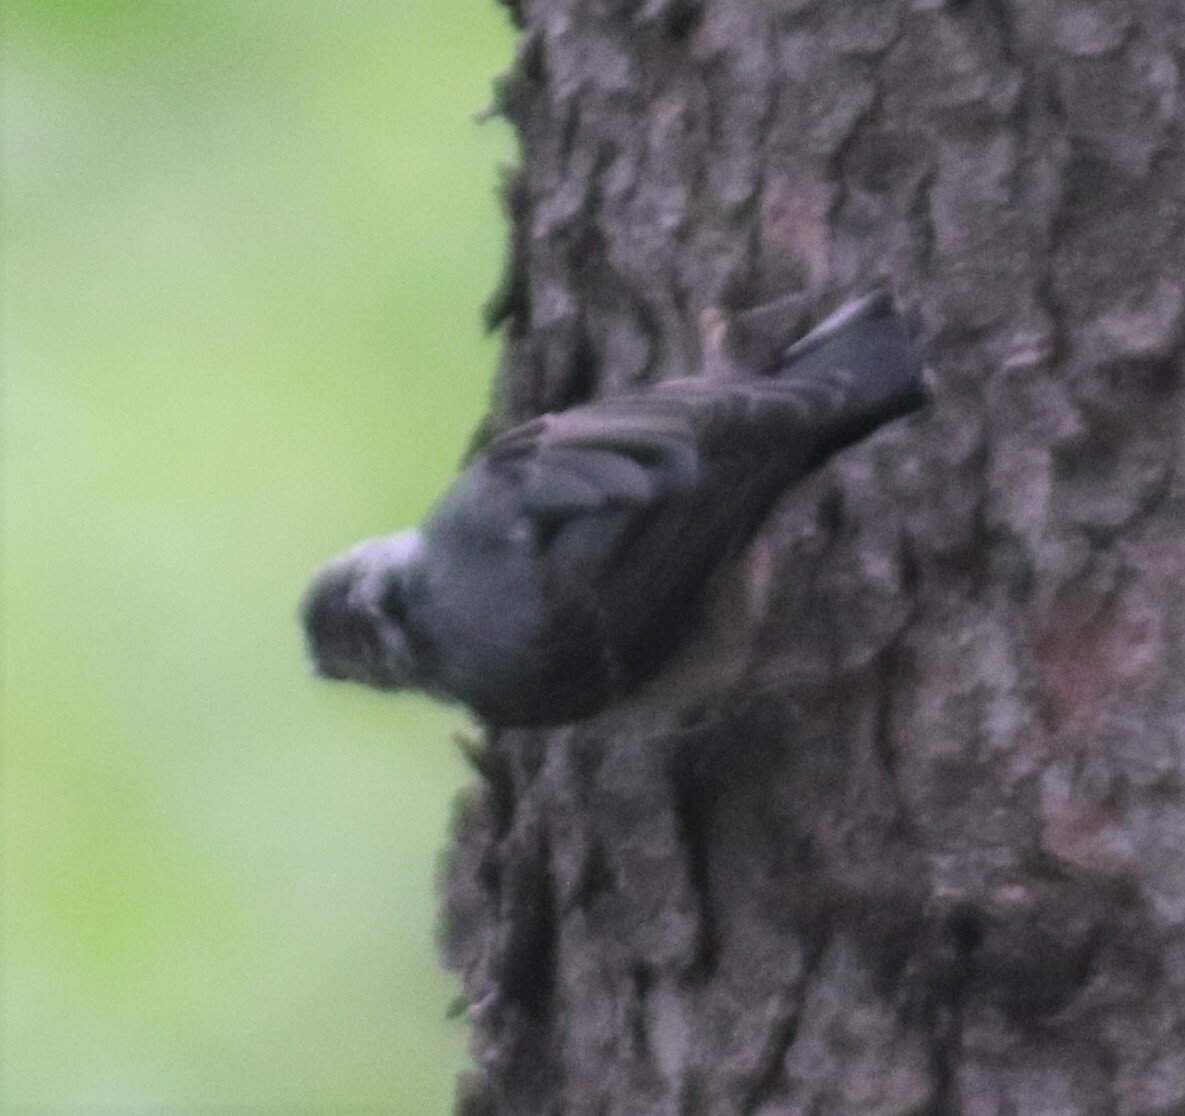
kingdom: Animalia
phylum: Chordata
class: Aves
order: Passeriformes
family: Sittidae
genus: Sitta
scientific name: Sitta carolinensis
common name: White-breasted nuthatch
